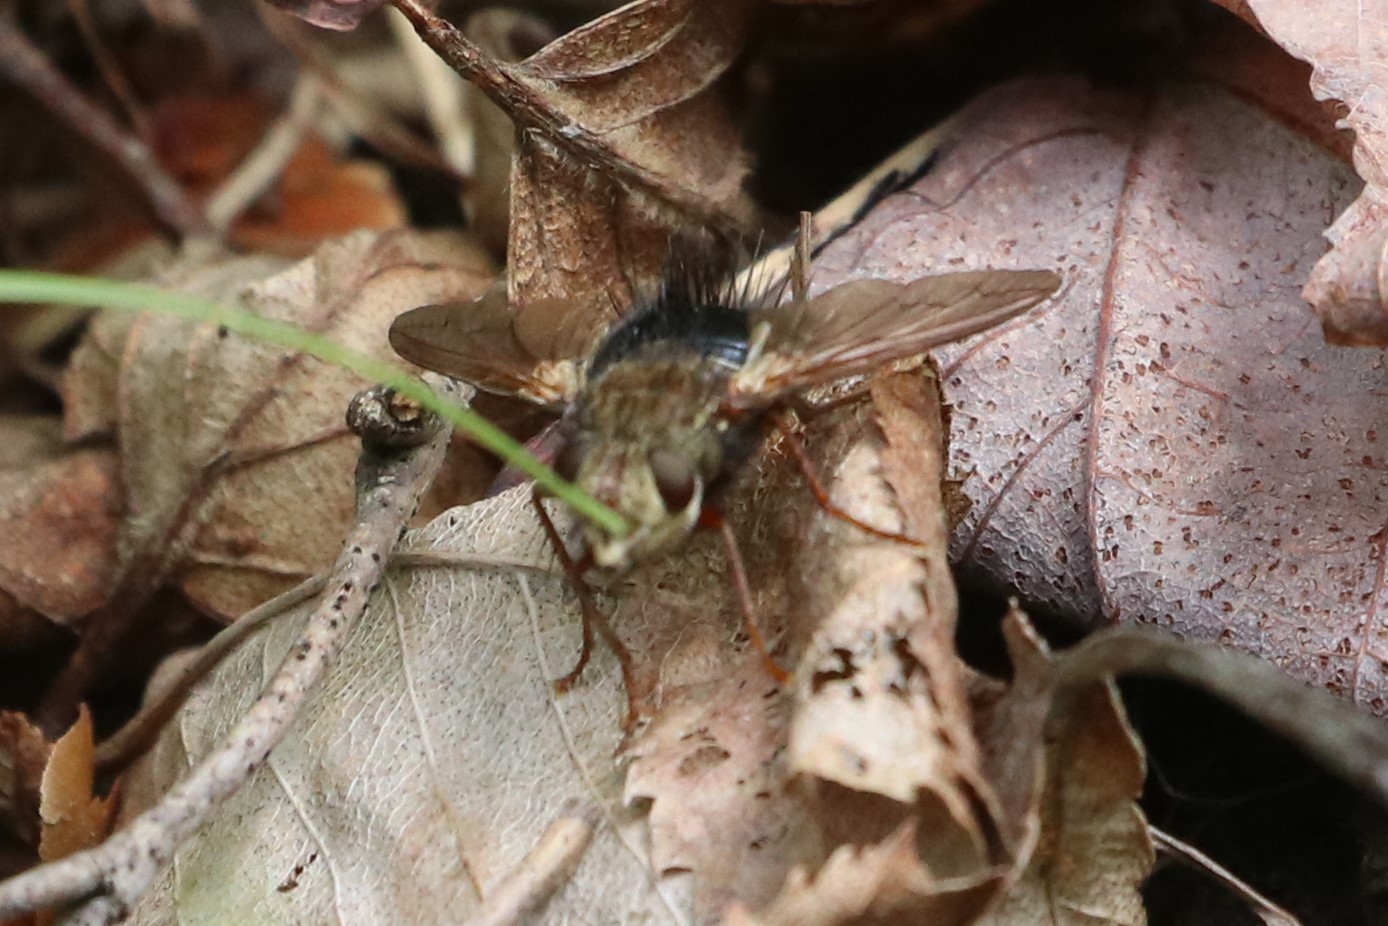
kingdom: Animalia
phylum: Arthropoda
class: Insecta
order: Diptera
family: Tachinidae
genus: Epalpus
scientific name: Epalpus signifer
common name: Early tachinid fly
